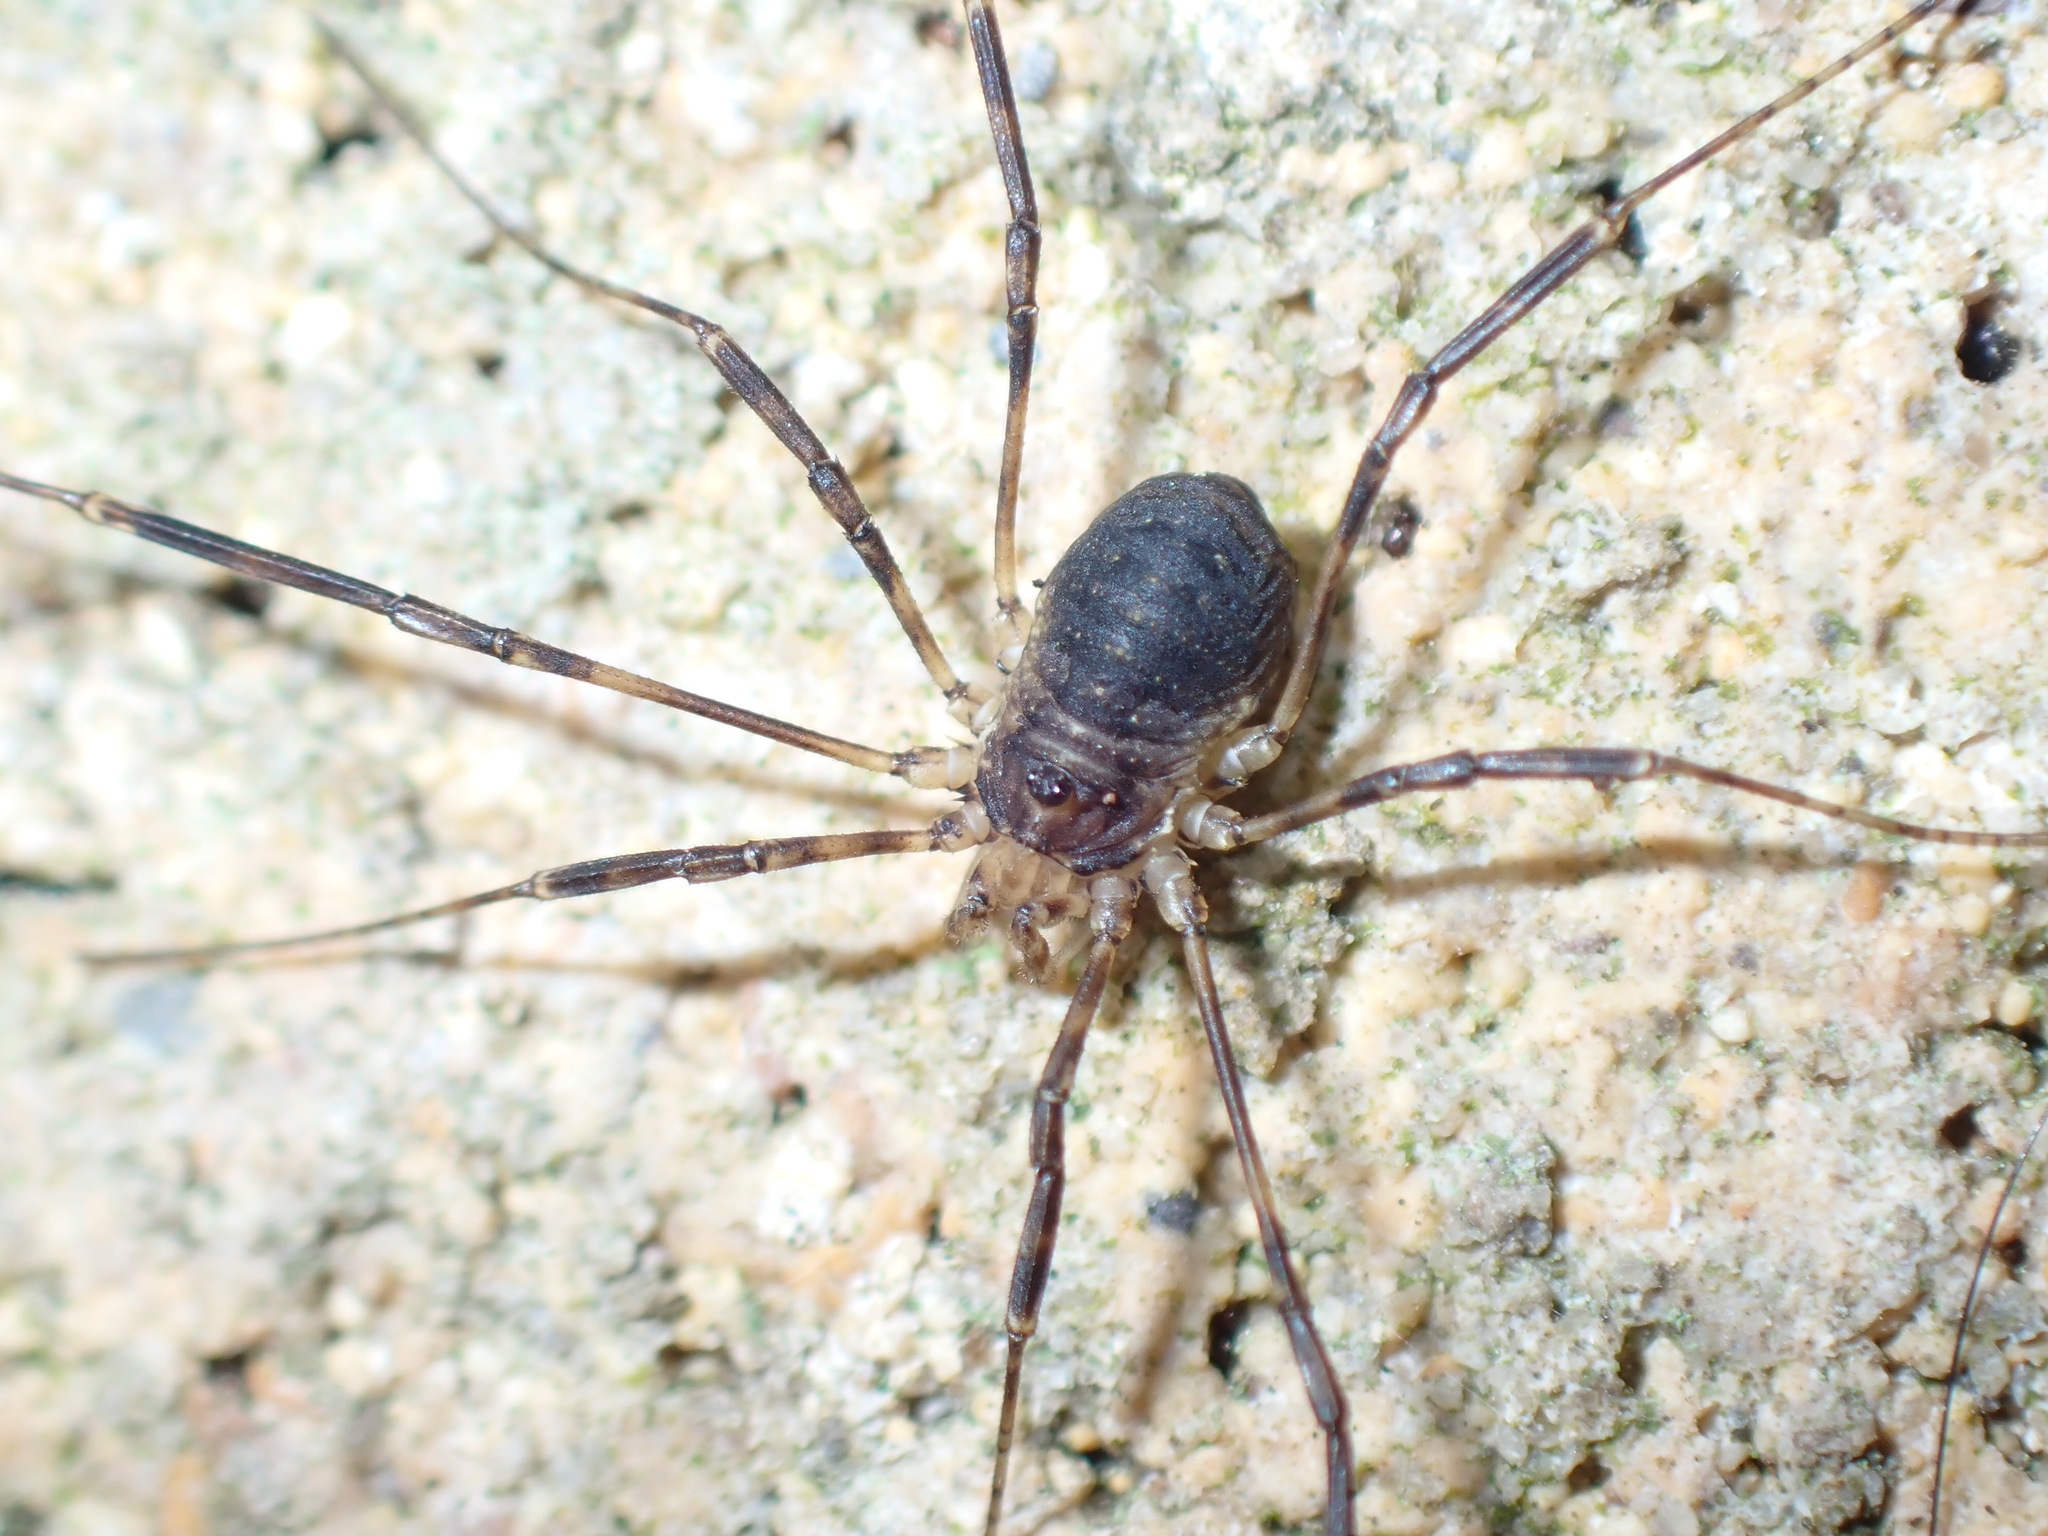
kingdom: Animalia
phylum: Arthropoda
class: Arachnida
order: Opiliones
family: Phalangiidae
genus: Oligolophus
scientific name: Oligolophus hansenii
